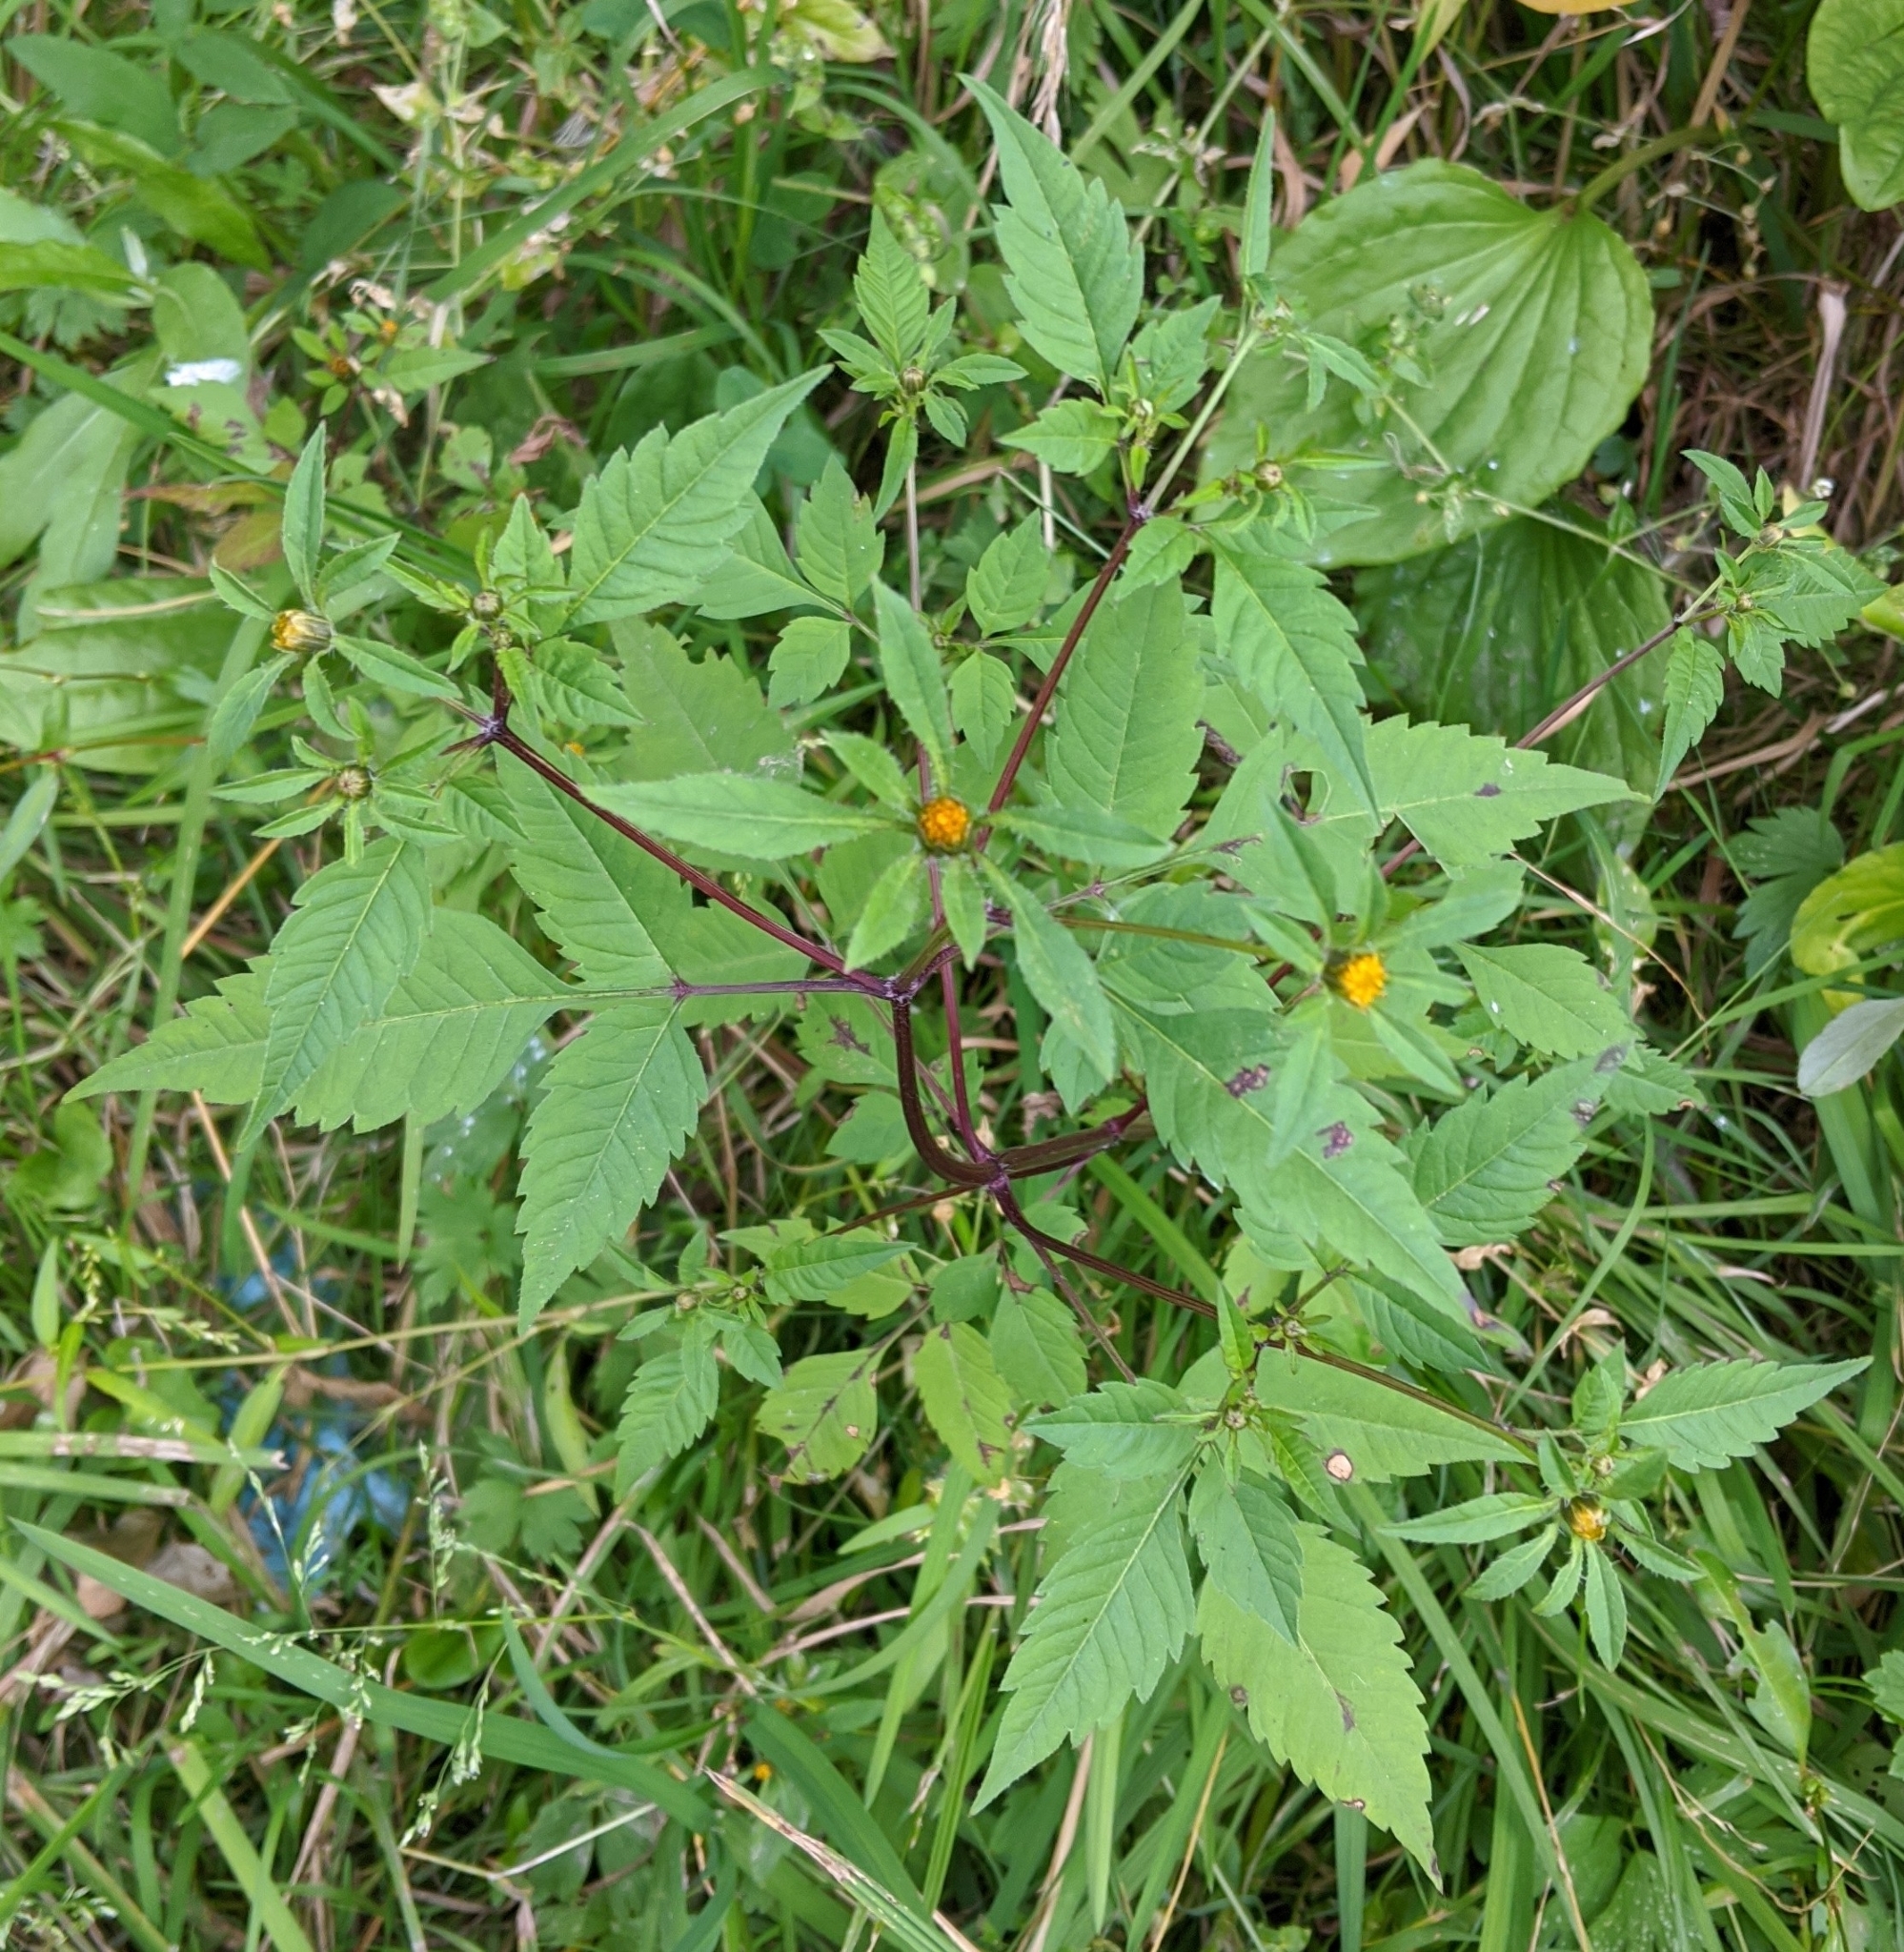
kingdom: Plantae
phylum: Tracheophyta
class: Magnoliopsida
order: Asterales
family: Asteraceae
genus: Bidens
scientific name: Bidens frondosa
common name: Beggarticks
